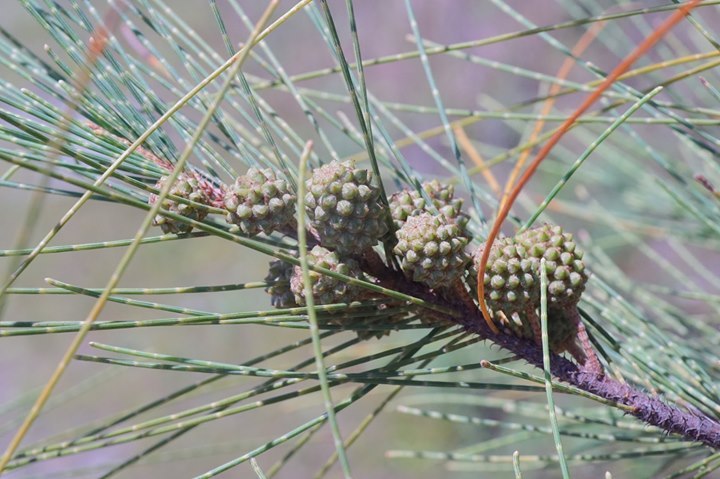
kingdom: Plantae
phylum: Tracheophyta
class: Magnoliopsida
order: Fagales
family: Casuarinaceae
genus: Casuarina
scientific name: Casuarina equisetifolia
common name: Beach sheoak
